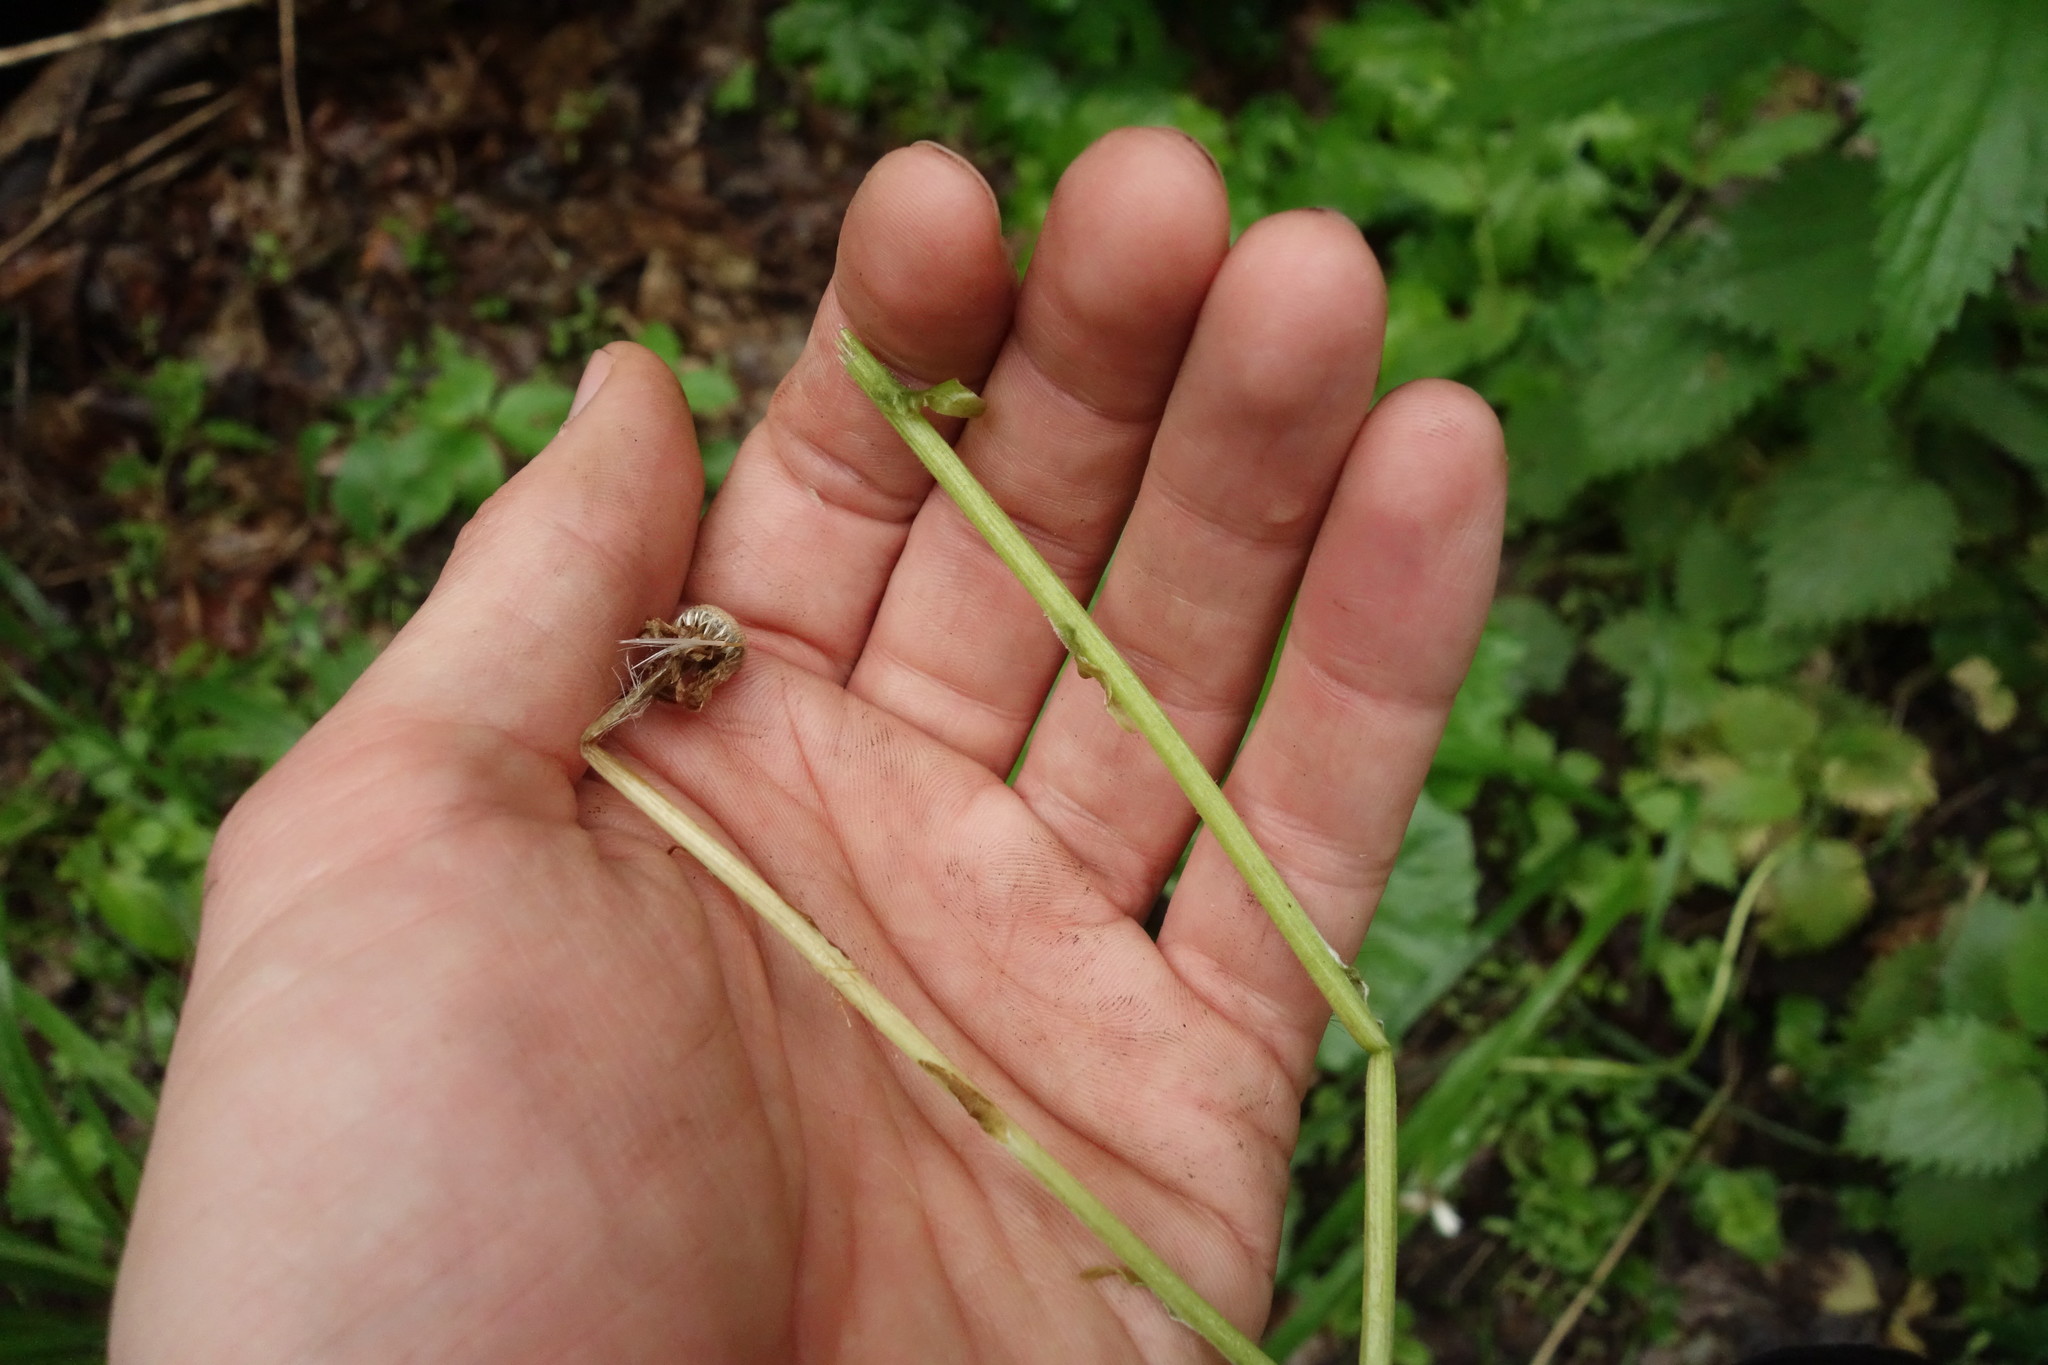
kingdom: Plantae
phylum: Tracheophyta
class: Magnoliopsida
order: Asterales
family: Asteraceae
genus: Tussilago
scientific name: Tussilago farfara
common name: Coltsfoot
